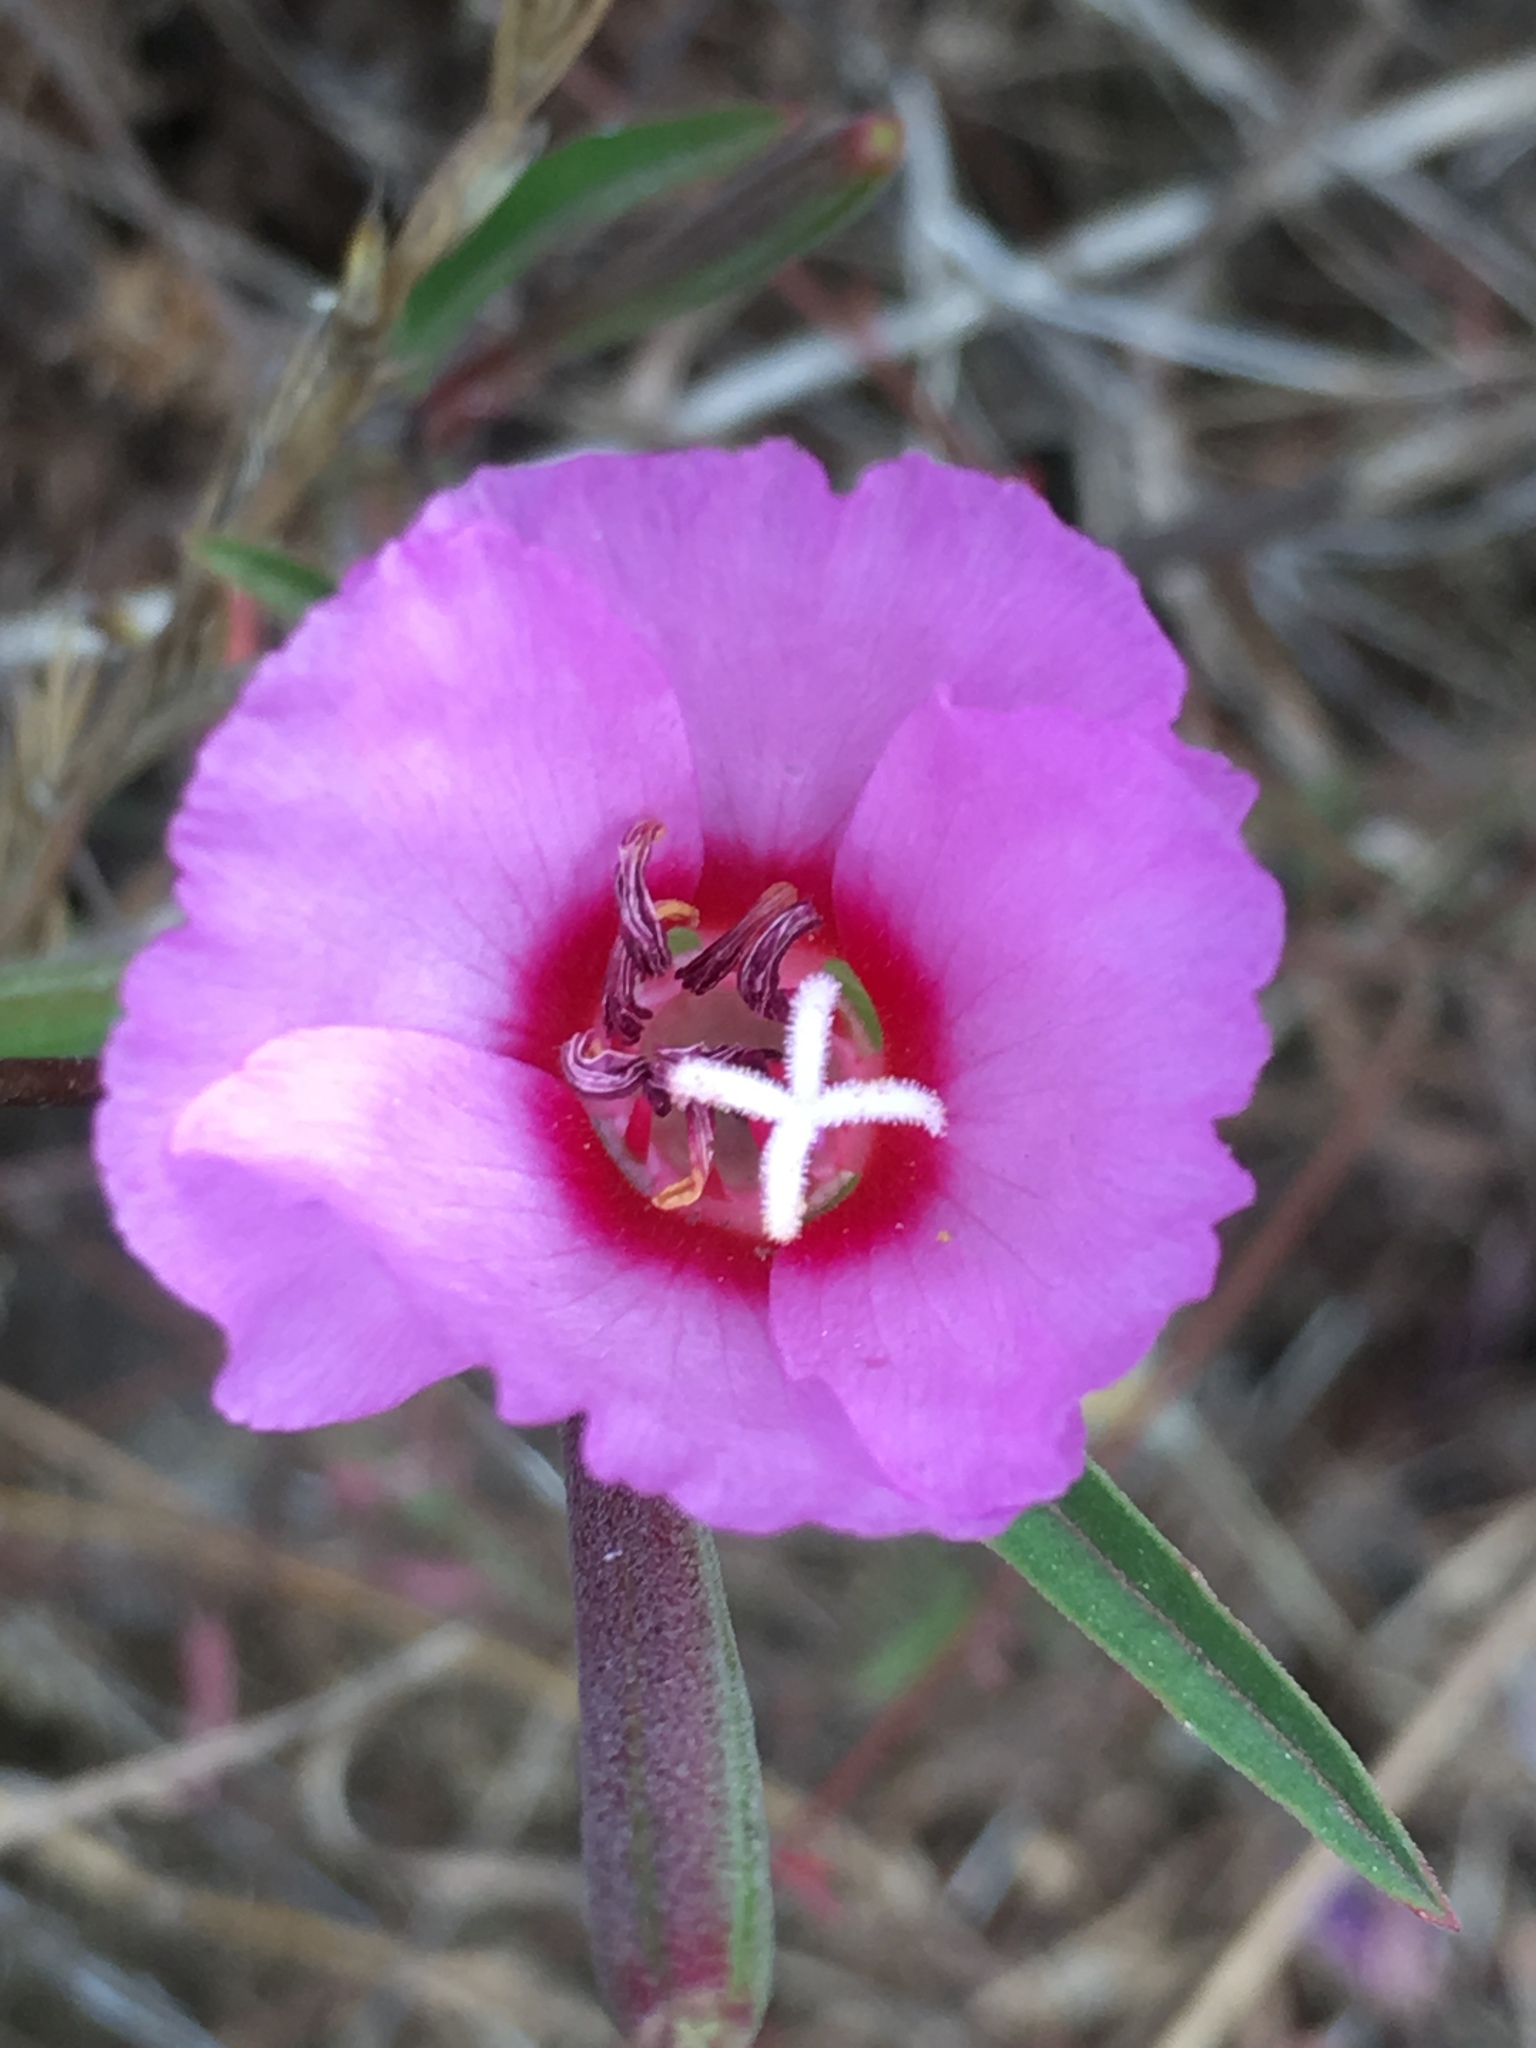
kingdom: Plantae
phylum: Tracheophyta
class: Magnoliopsida
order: Myrtales
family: Onagraceae
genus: Clarkia
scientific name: Clarkia rubicunda
